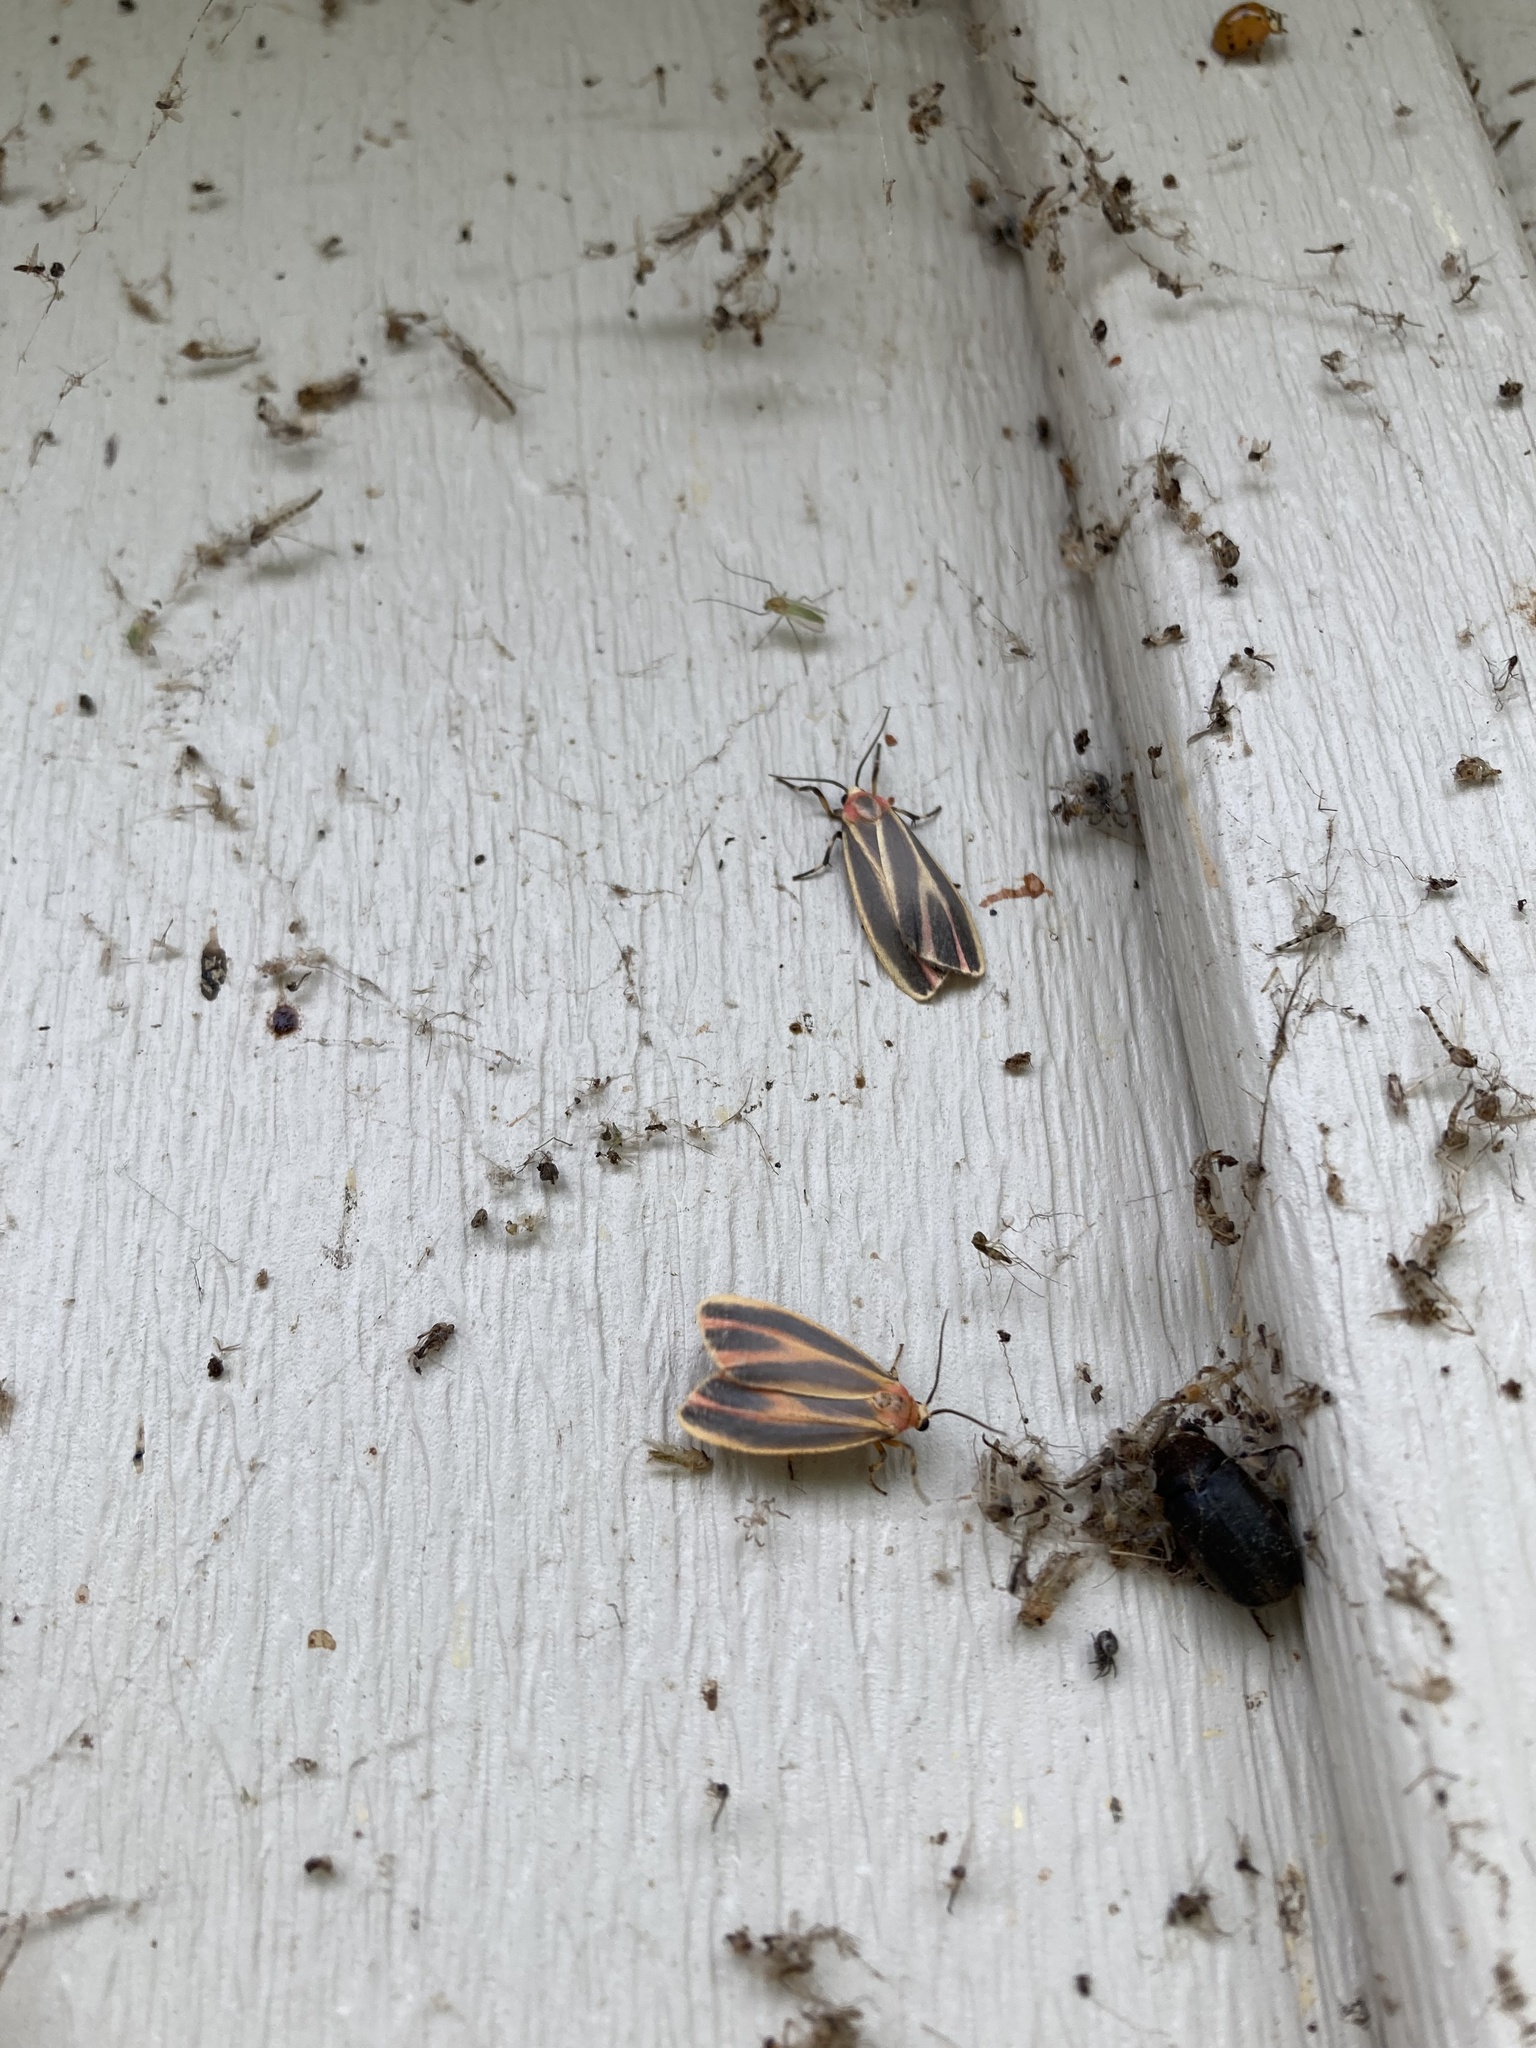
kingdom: Animalia
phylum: Arthropoda
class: Insecta
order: Lepidoptera
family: Erebidae
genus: Hypoprepia
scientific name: Hypoprepia fucosa
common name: Painted lichen moth
